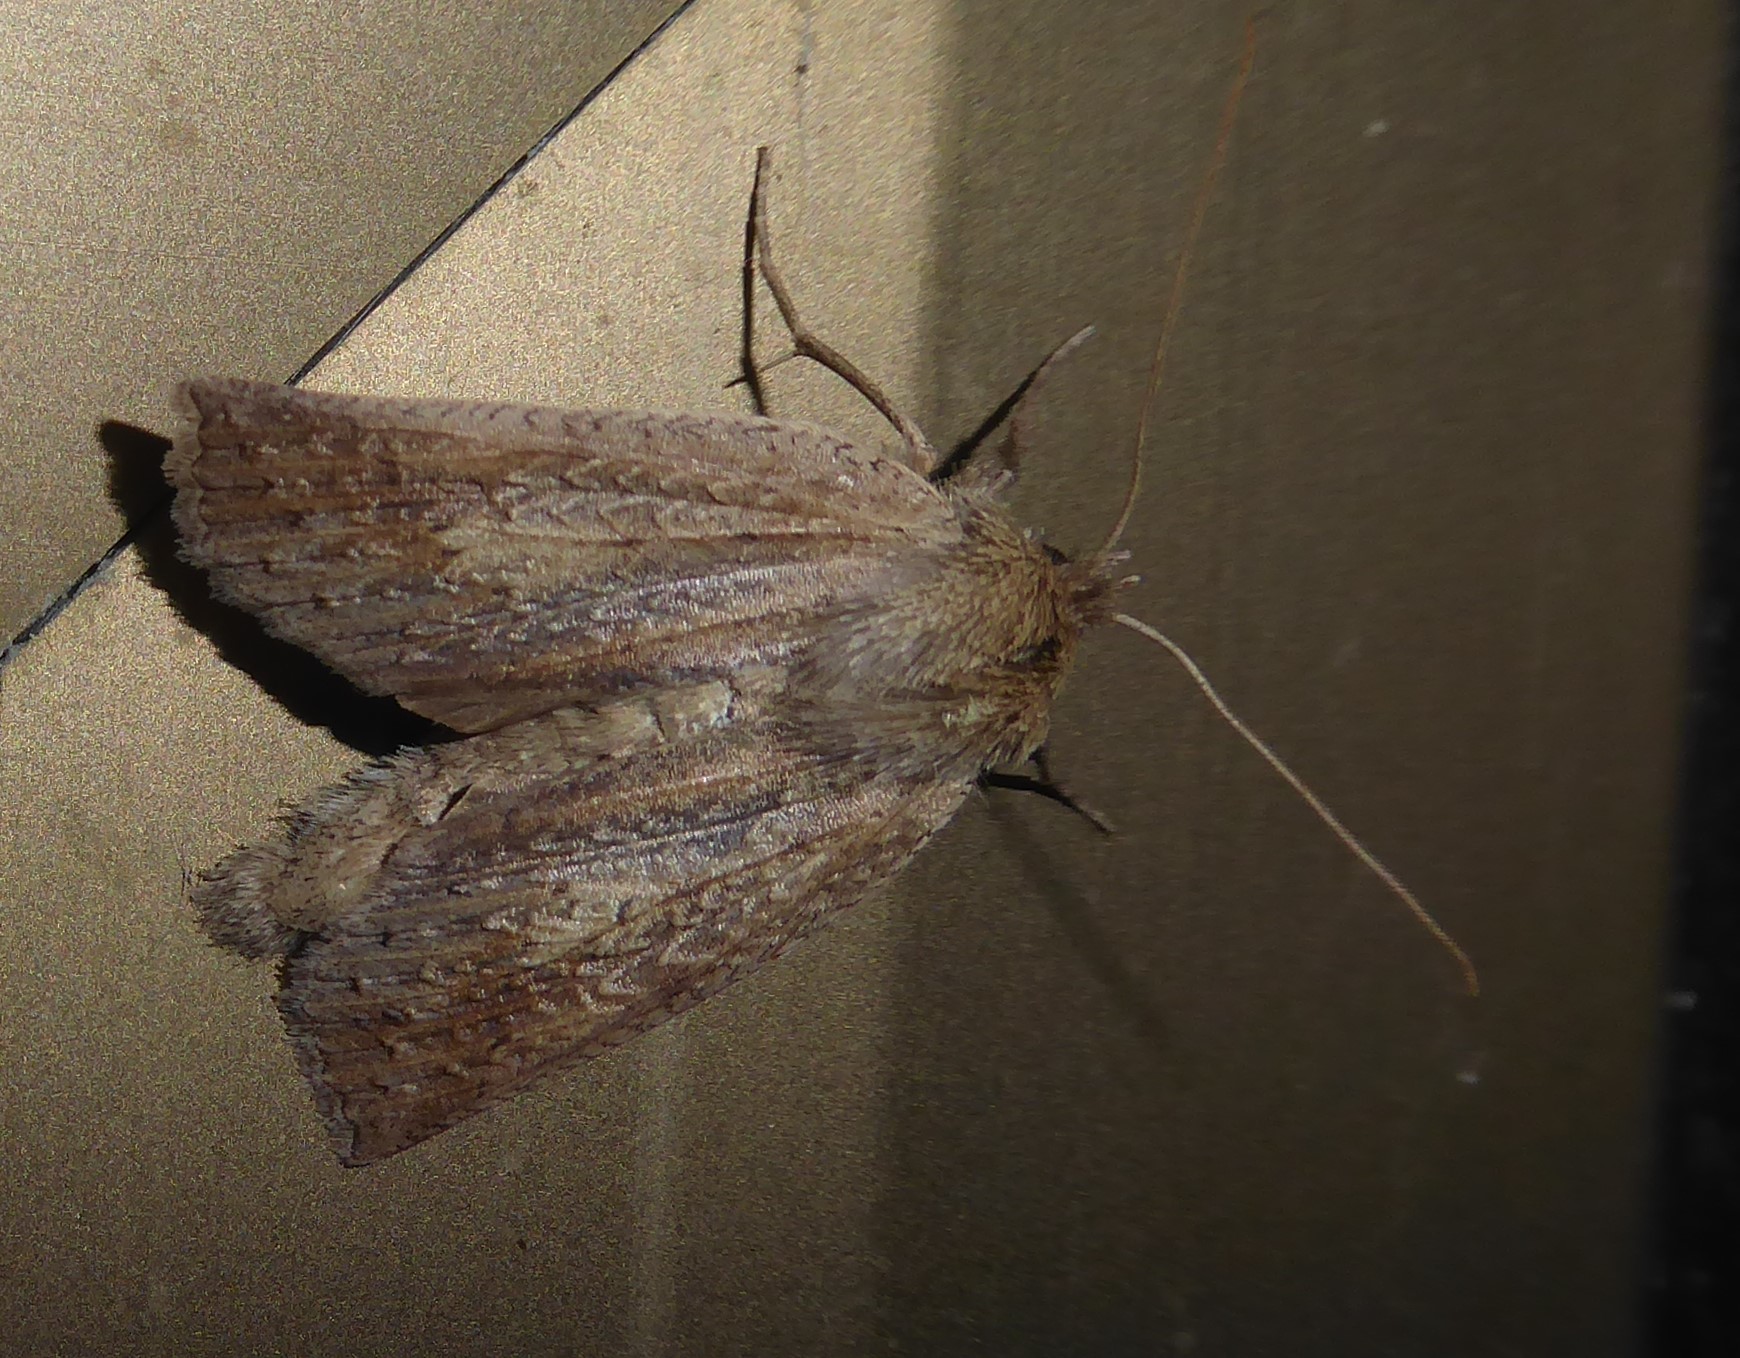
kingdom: Animalia
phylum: Arthropoda
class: Insecta
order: Lepidoptera
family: Geometridae
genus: Declana
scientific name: Declana leptomera
